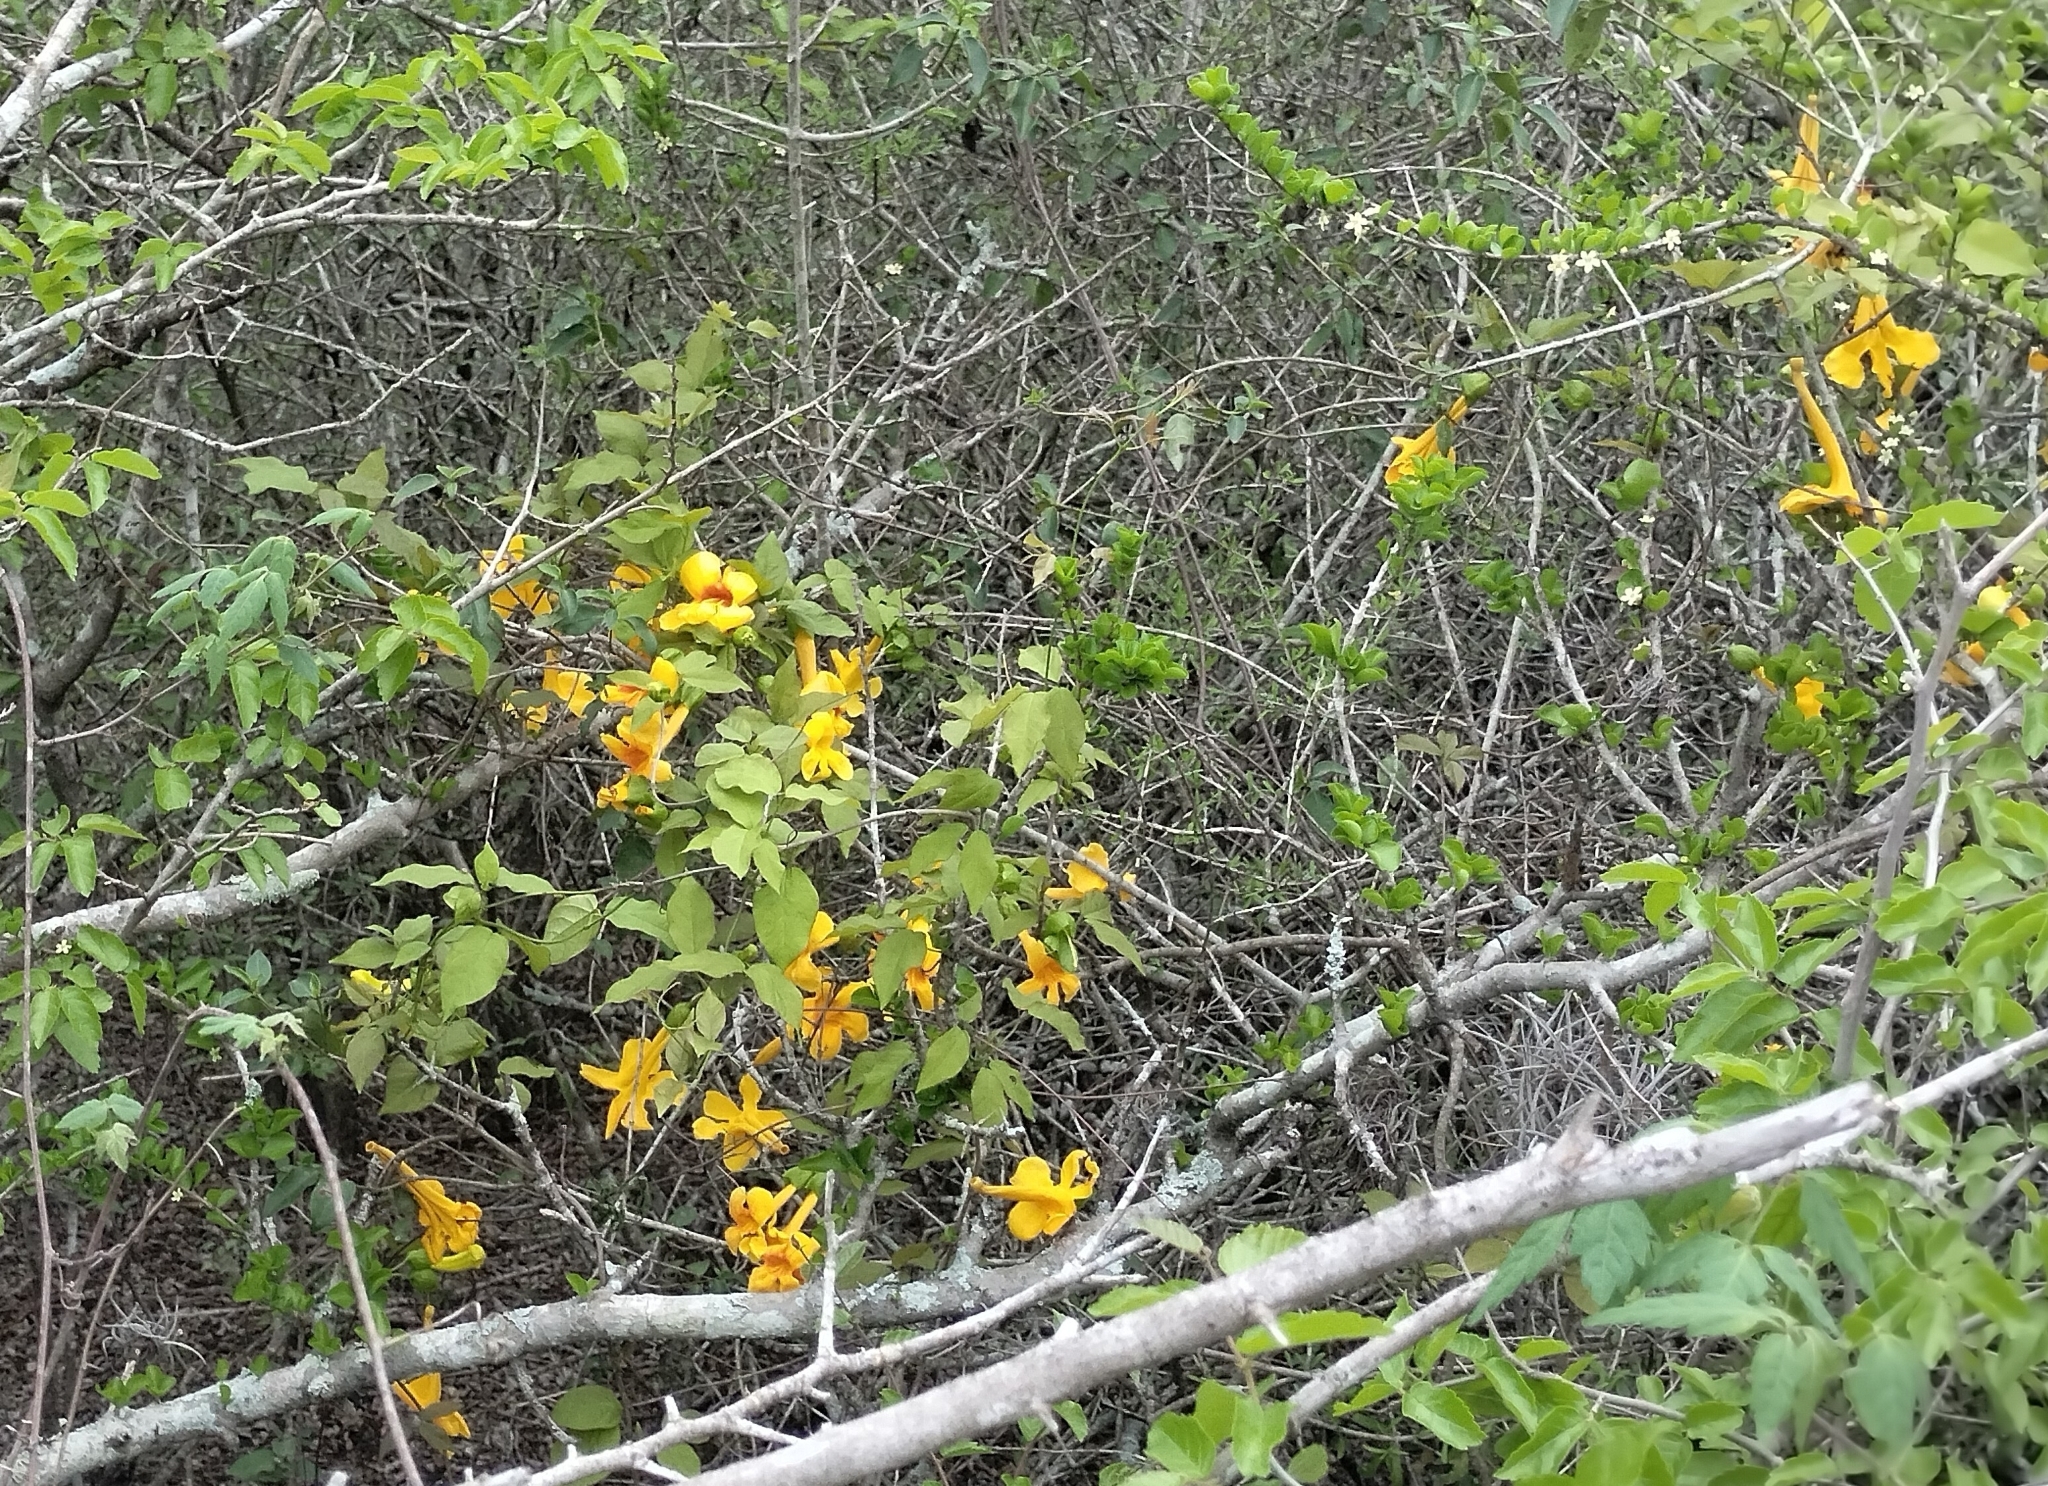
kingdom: Plantae
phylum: Tracheophyta
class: Magnoliopsida
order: Lamiales
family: Bignoniaceae
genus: Dolichandra
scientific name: Dolichandra unguis-cati
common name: Catclaw vine
